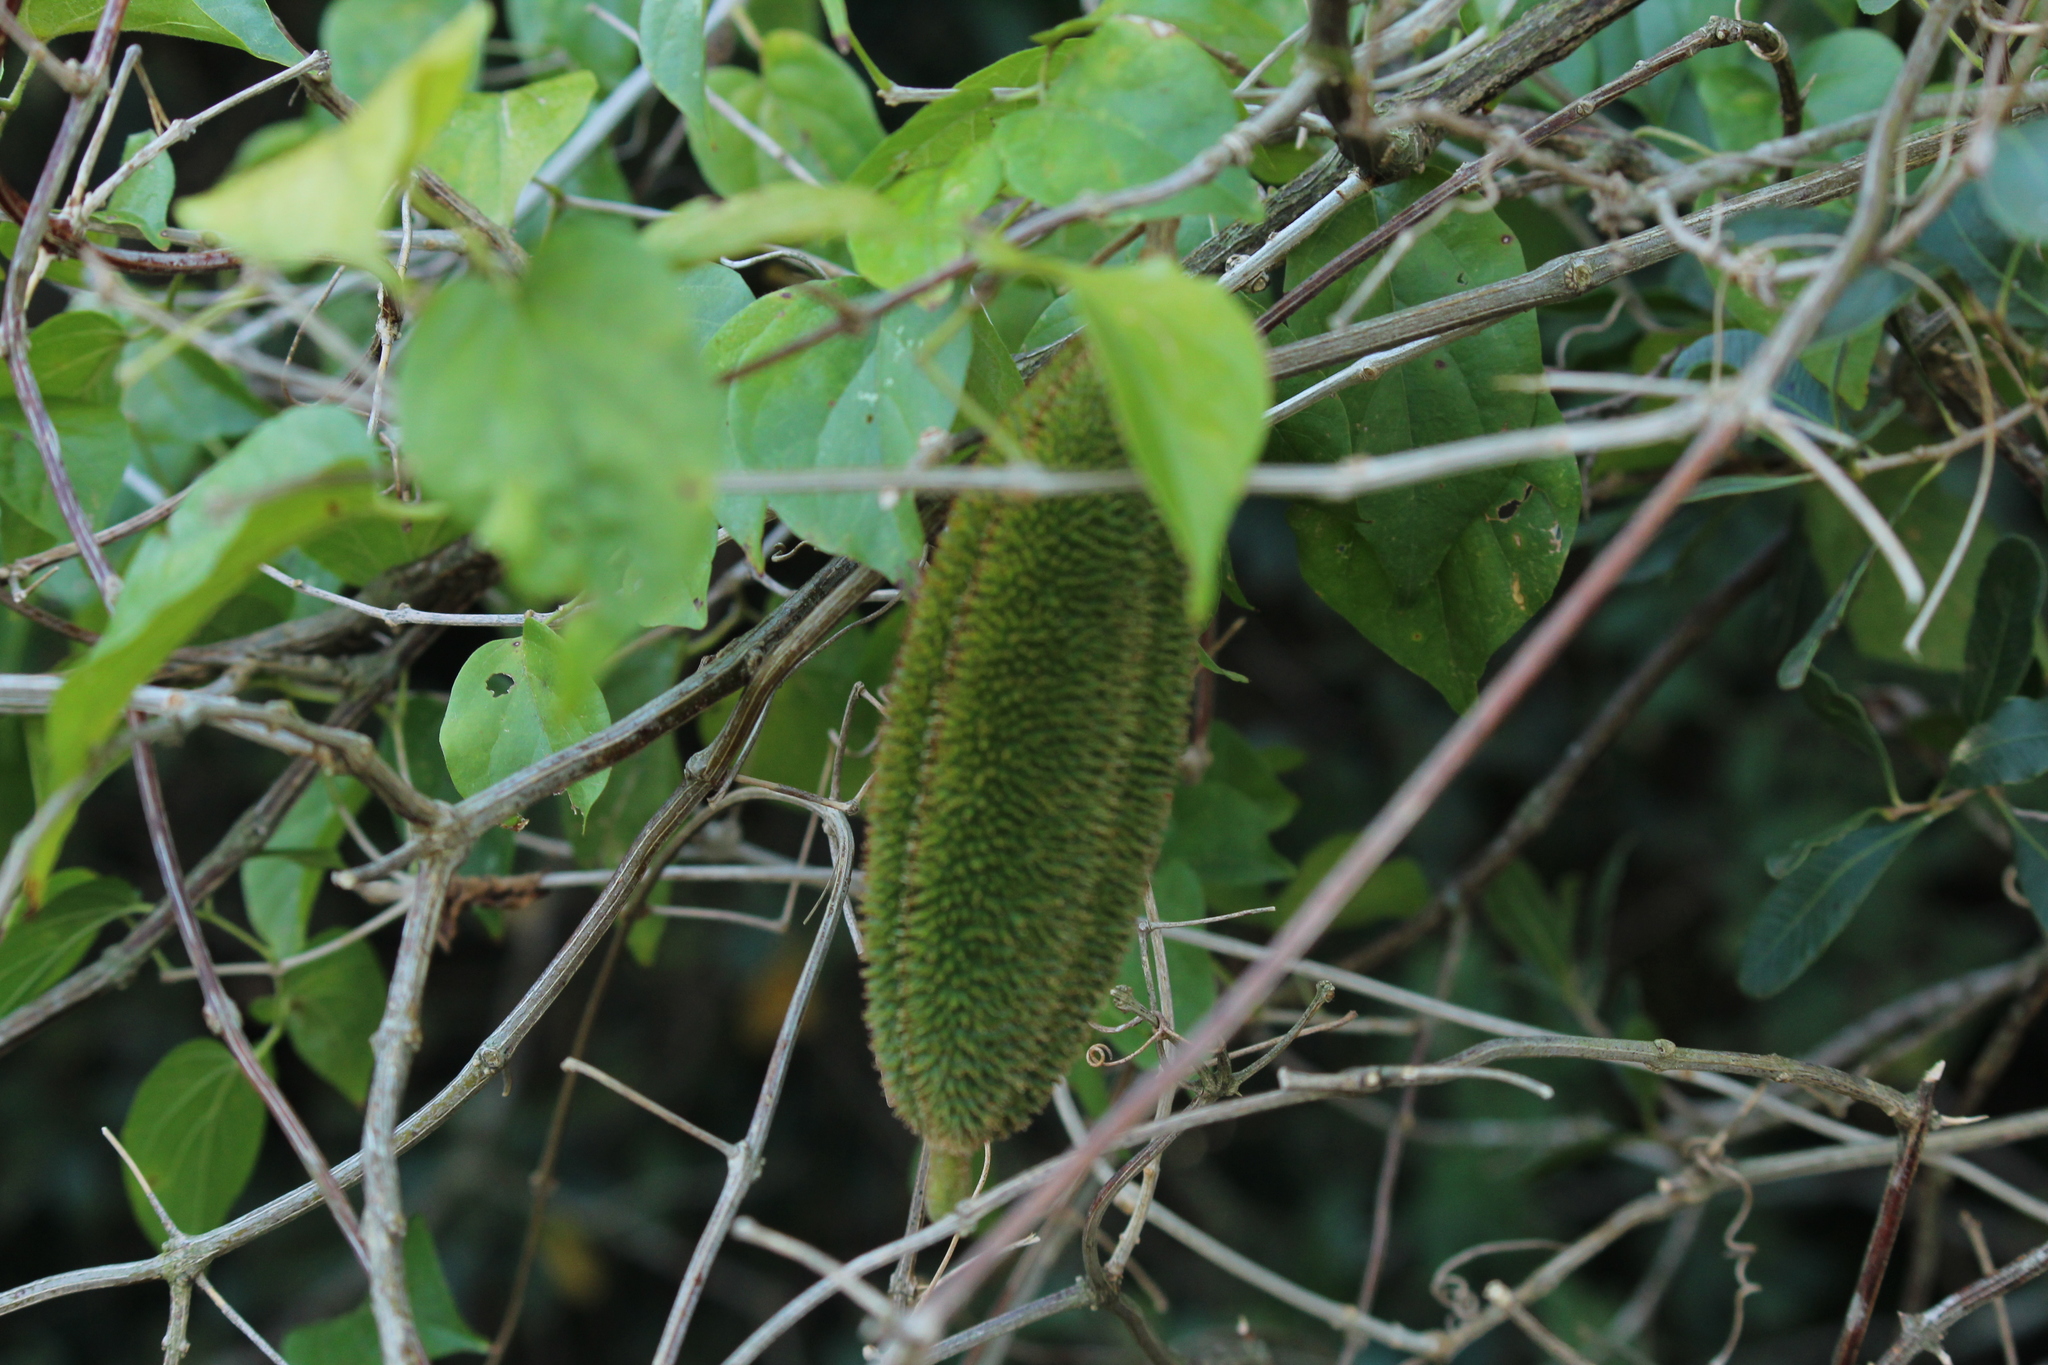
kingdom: Plantae
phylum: Tracheophyta
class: Magnoliopsida
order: Lamiales
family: Bignoniaceae
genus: Amphilophium
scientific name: Amphilophium crucigerum
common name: Monkey comb
